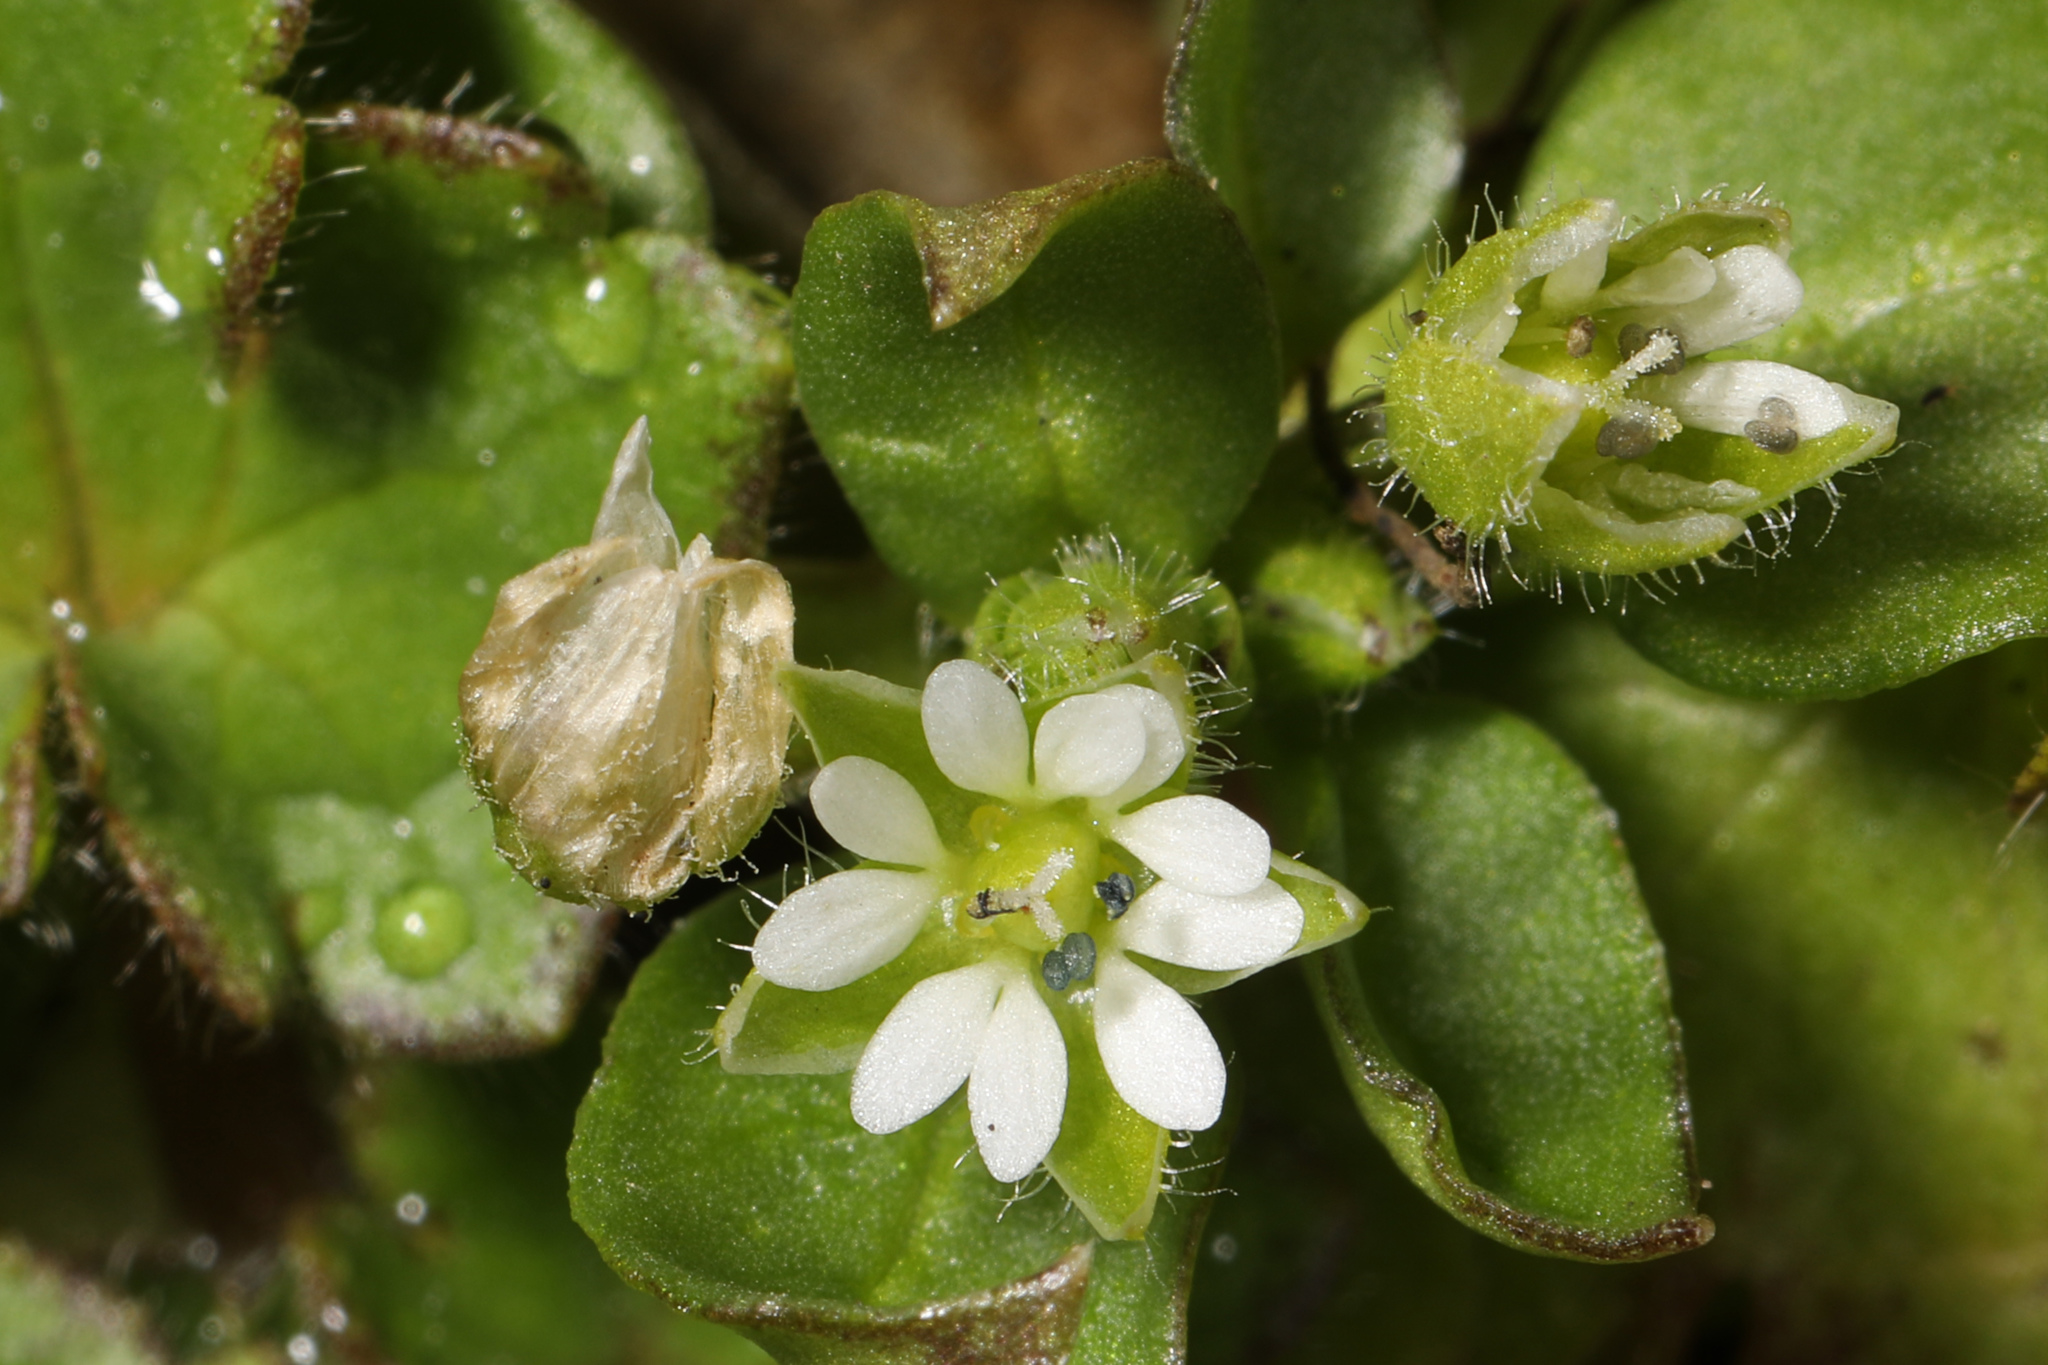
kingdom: Plantae
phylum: Tracheophyta
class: Magnoliopsida
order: Caryophyllales
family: Caryophyllaceae
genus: Stellaria
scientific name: Stellaria media
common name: Common chickweed
